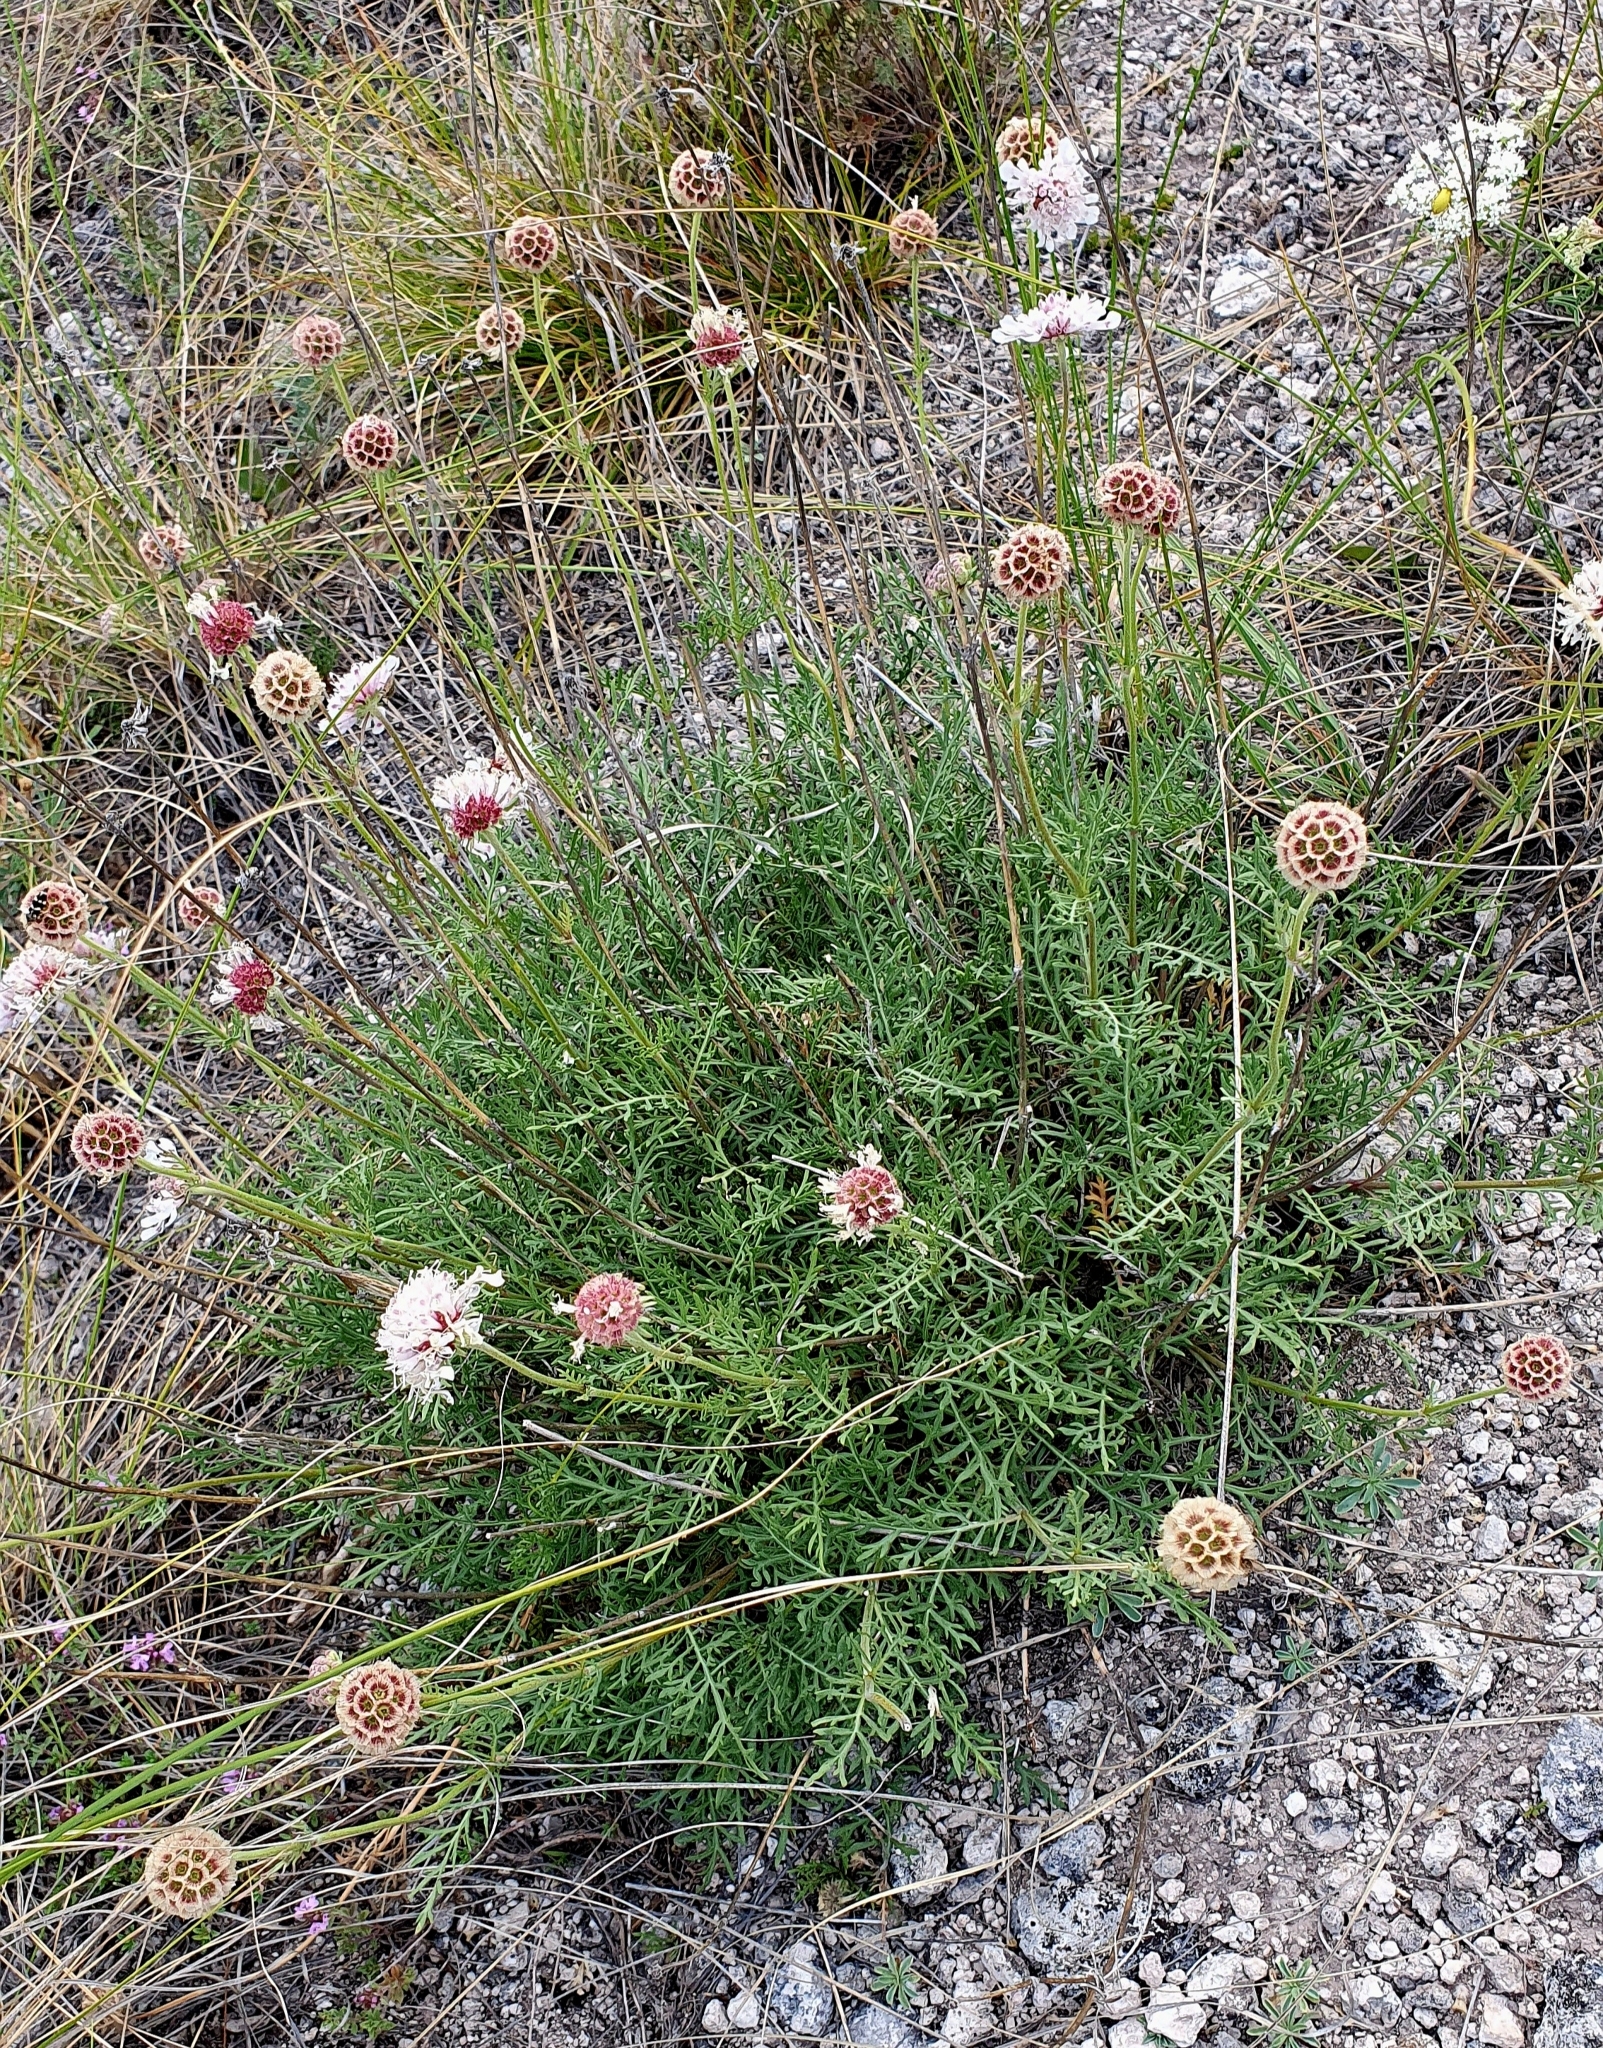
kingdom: Plantae
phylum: Tracheophyta
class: Magnoliopsida
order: Dipsacales
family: Caprifoliaceae
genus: Lomelosia
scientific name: Lomelosia isetensis
